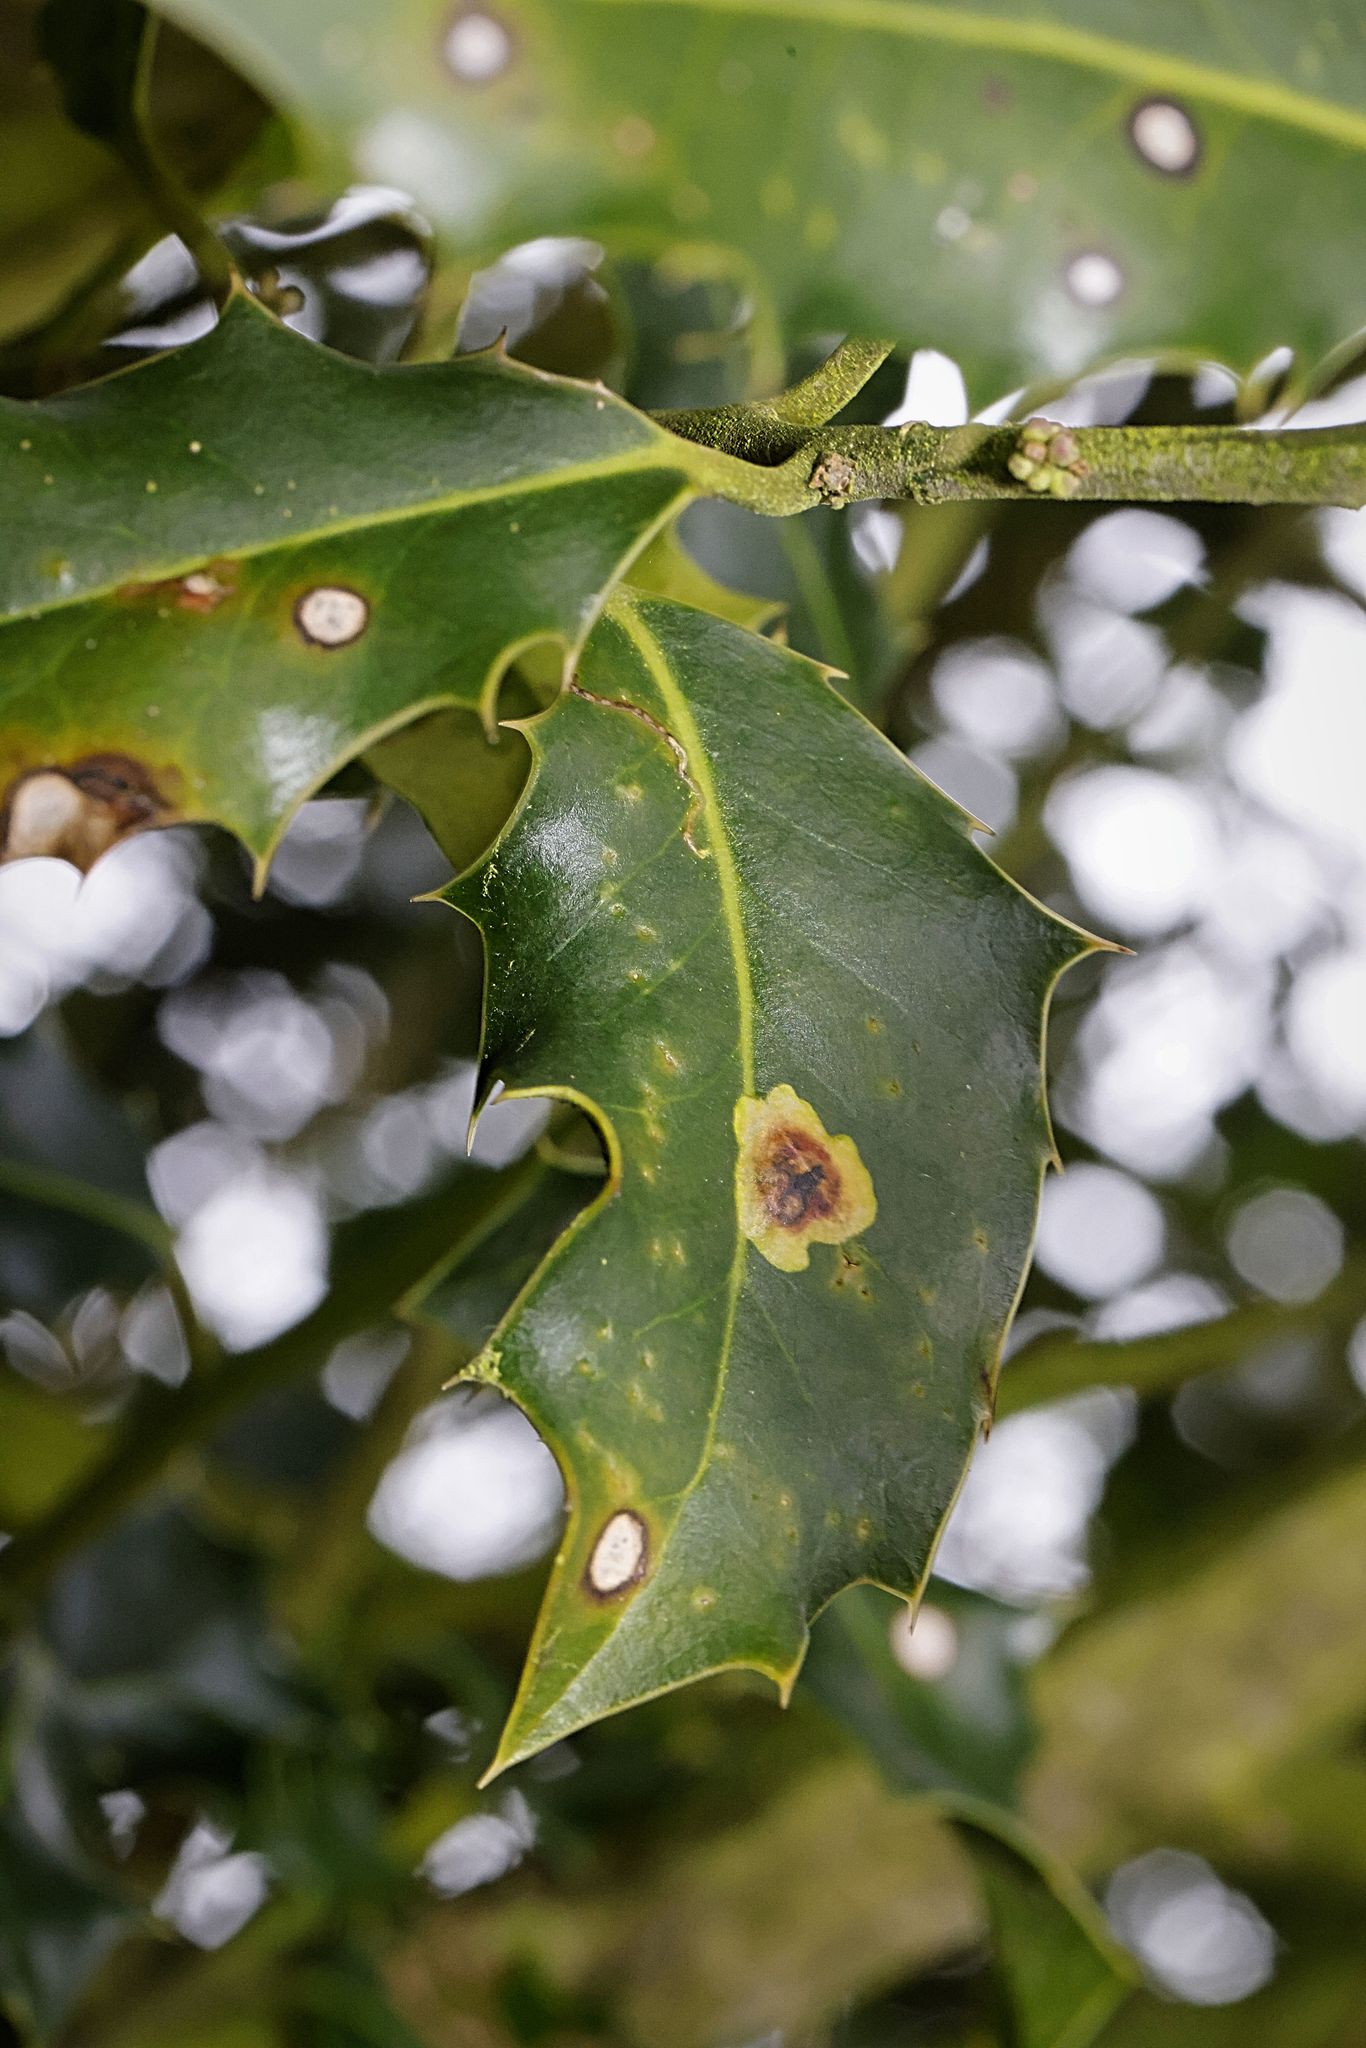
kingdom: Plantae
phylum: Tracheophyta
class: Magnoliopsida
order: Aquifoliales
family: Aquifoliaceae
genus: Ilex
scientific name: Ilex aquifolium
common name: English holly
